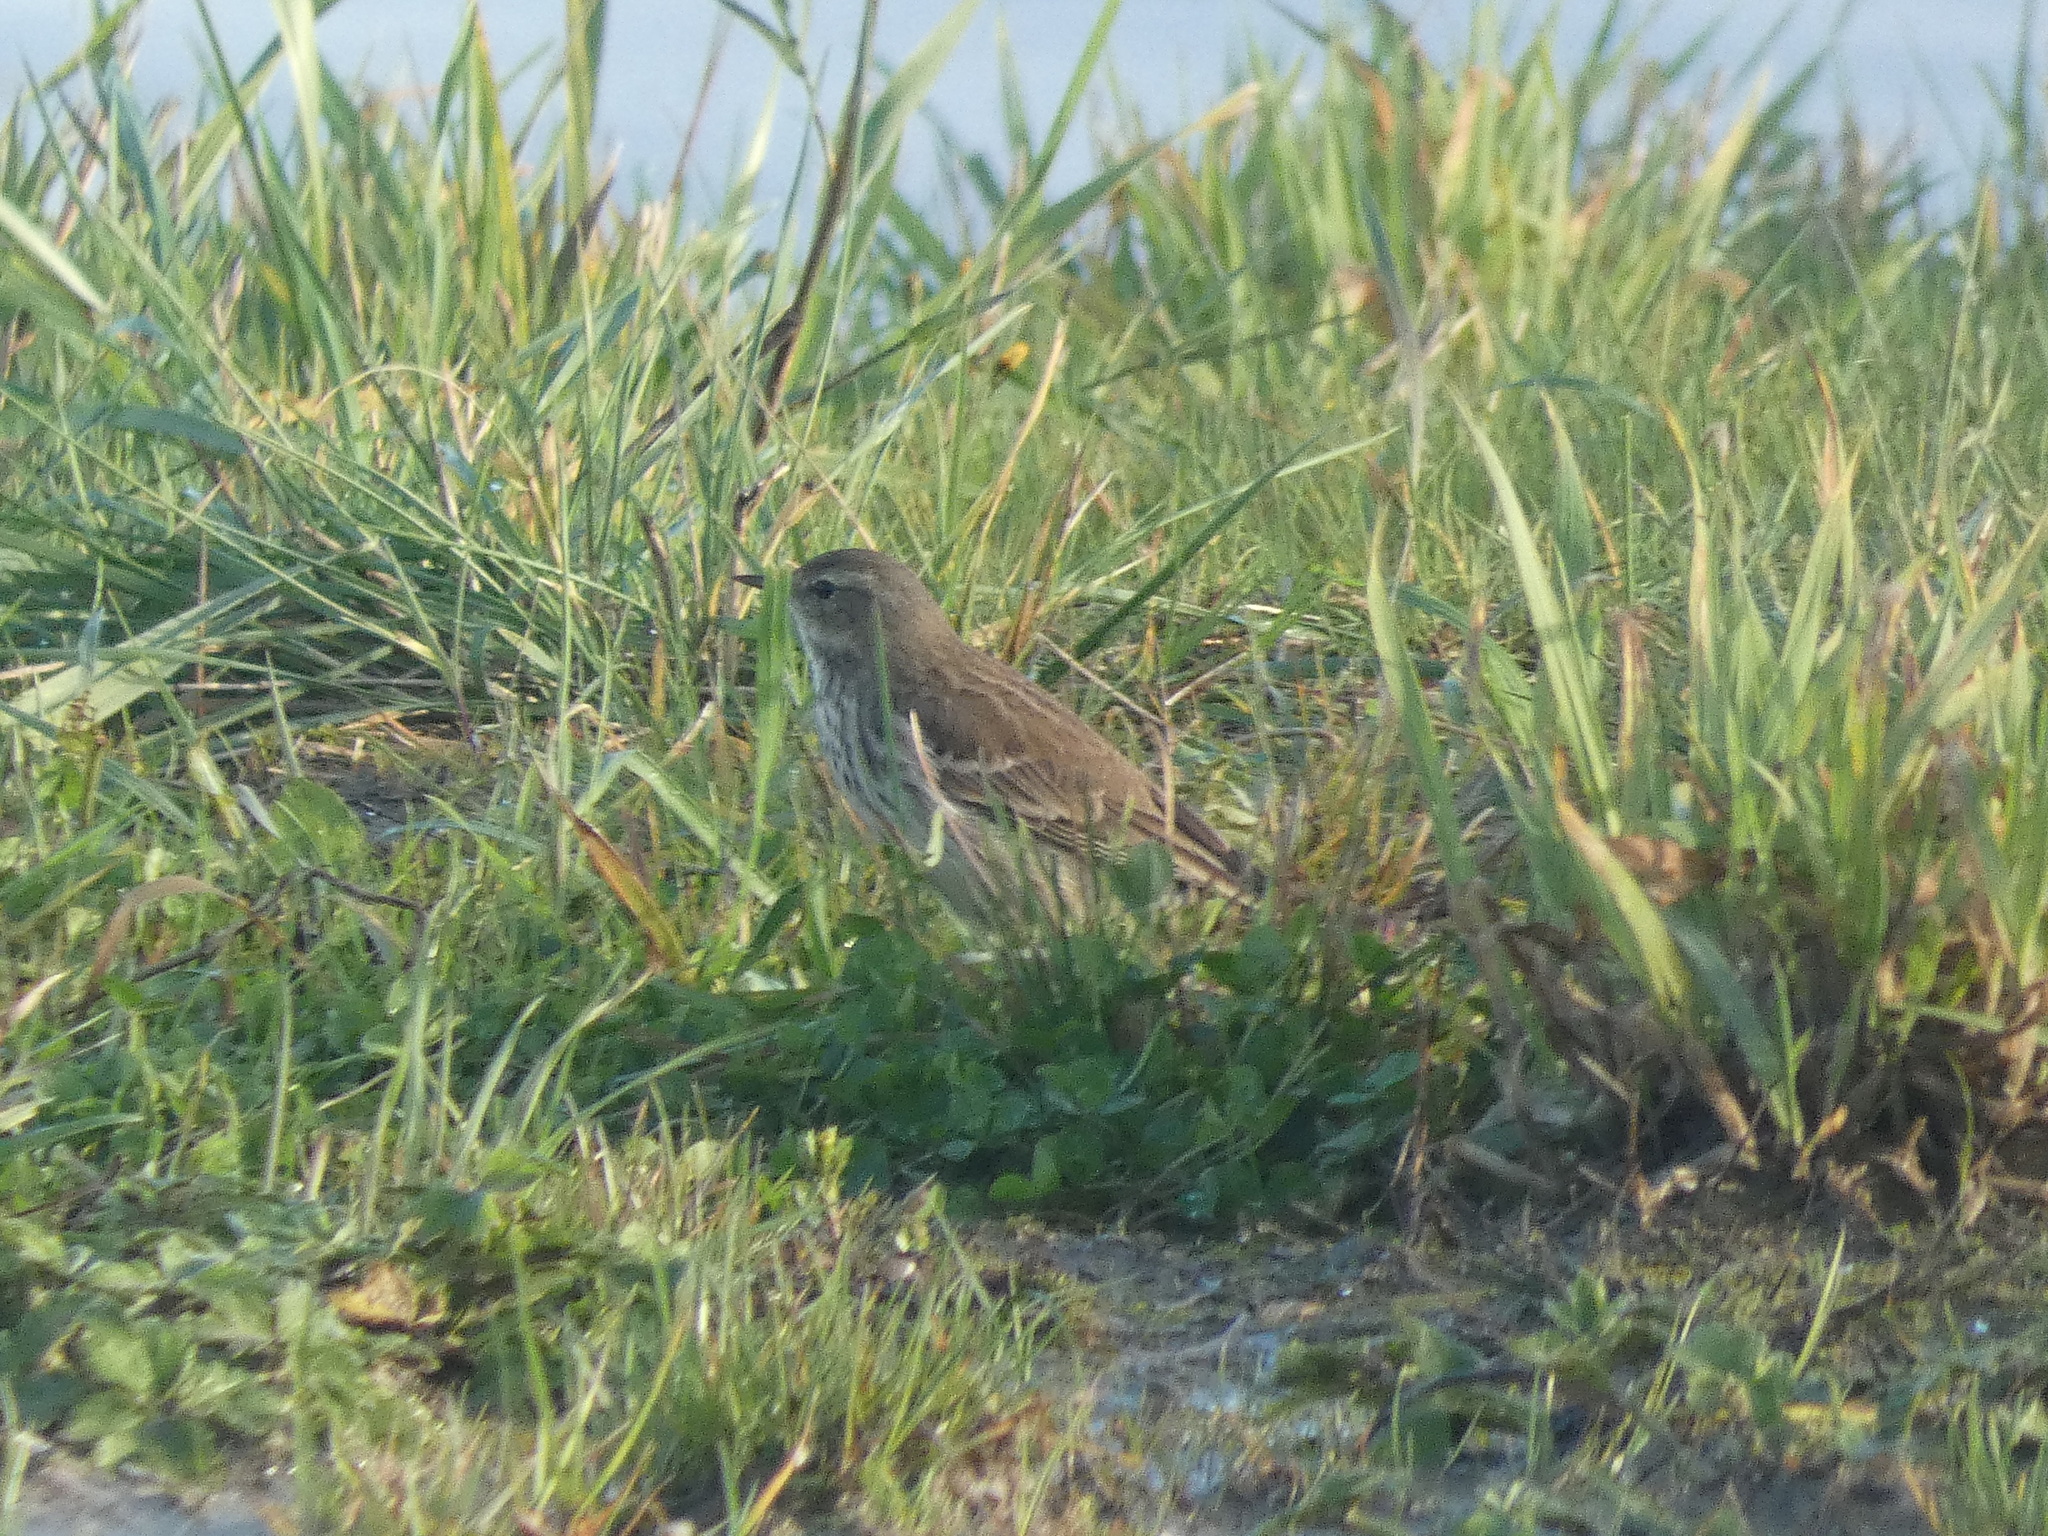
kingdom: Animalia
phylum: Chordata
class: Aves
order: Passeriformes
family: Motacillidae
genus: Anthus
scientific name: Anthus spinoletta
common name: Water pipit
